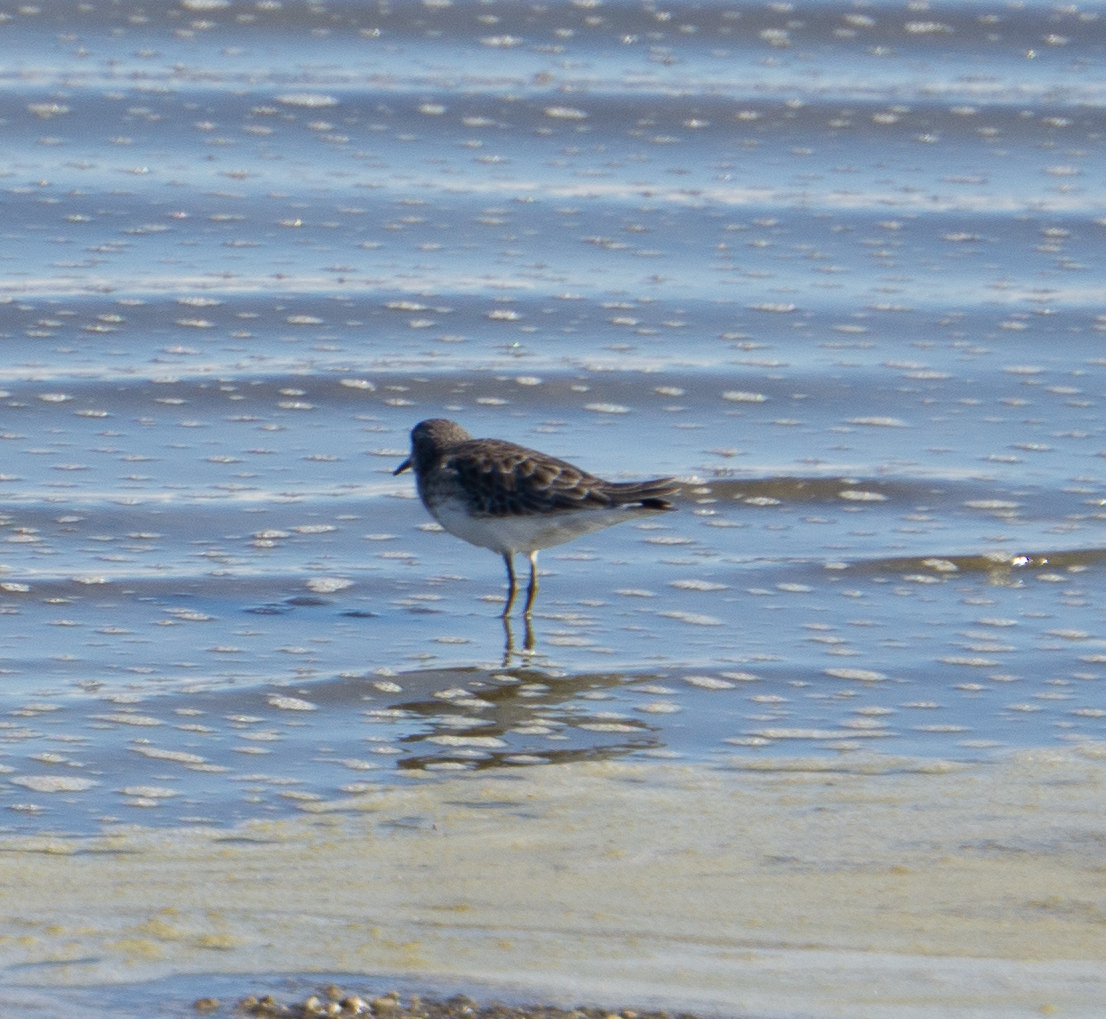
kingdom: Animalia
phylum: Chordata
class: Aves
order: Charadriiformes
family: Scolopacidae
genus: Calidris
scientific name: Calidris minutilla
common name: Least sandpiper
